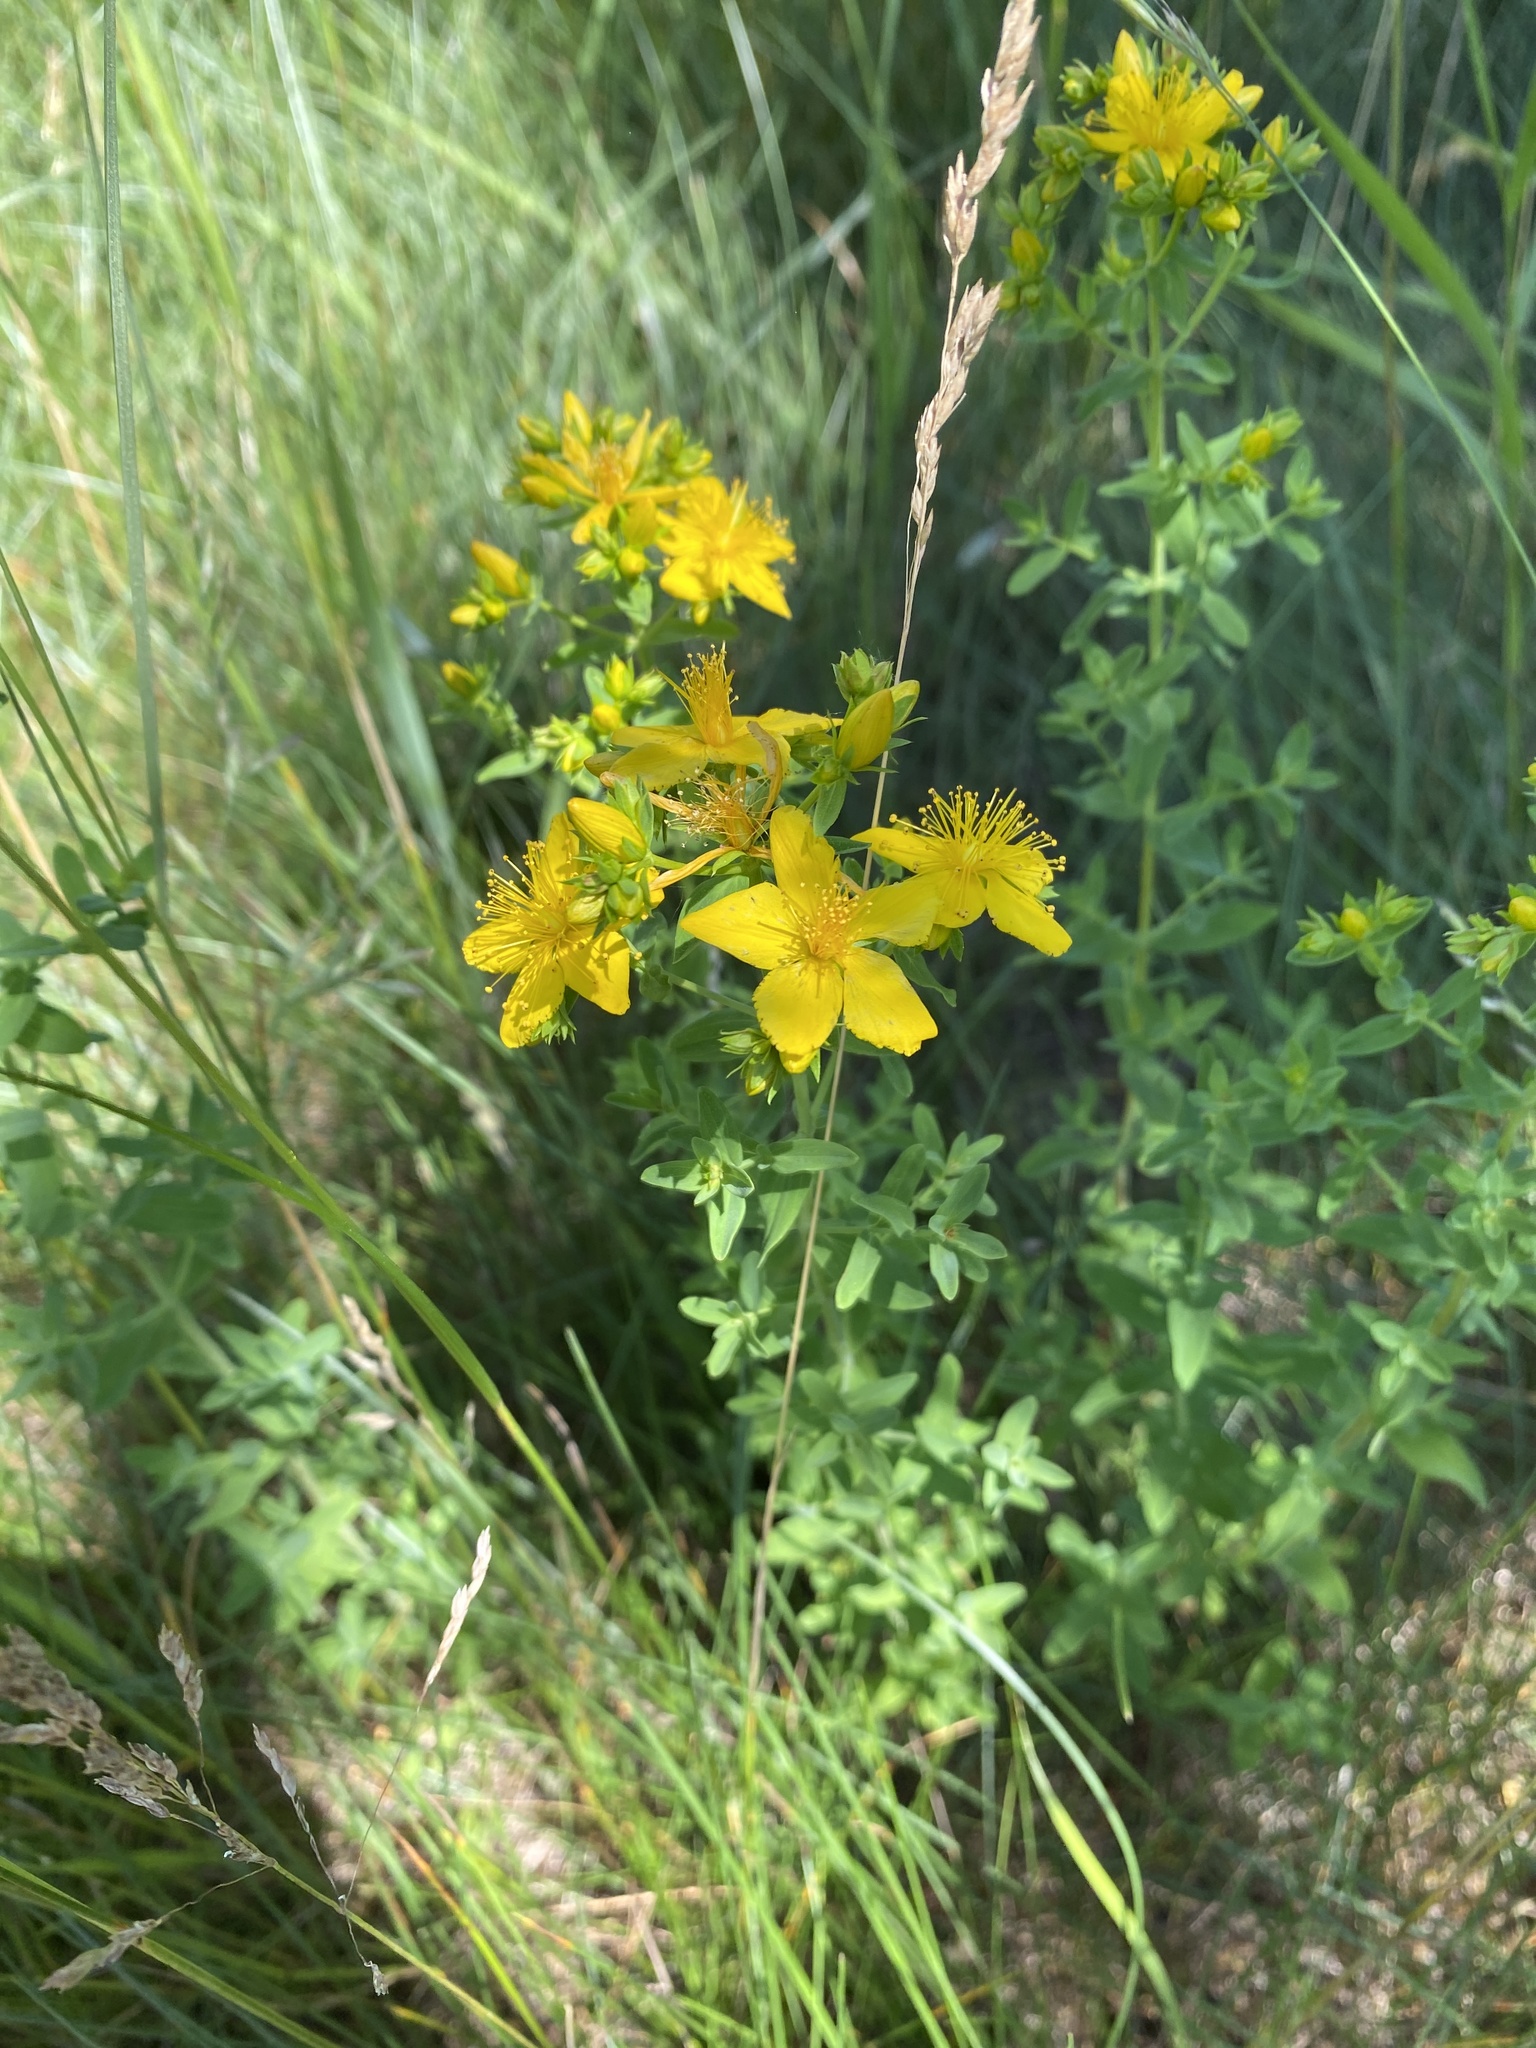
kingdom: Plantae
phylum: Tracheophyta
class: Magnoliopsida
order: Malpighiales
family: Hypericaceae
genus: Hypericum
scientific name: Hypericum perforatum
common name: Common st. johnswort
